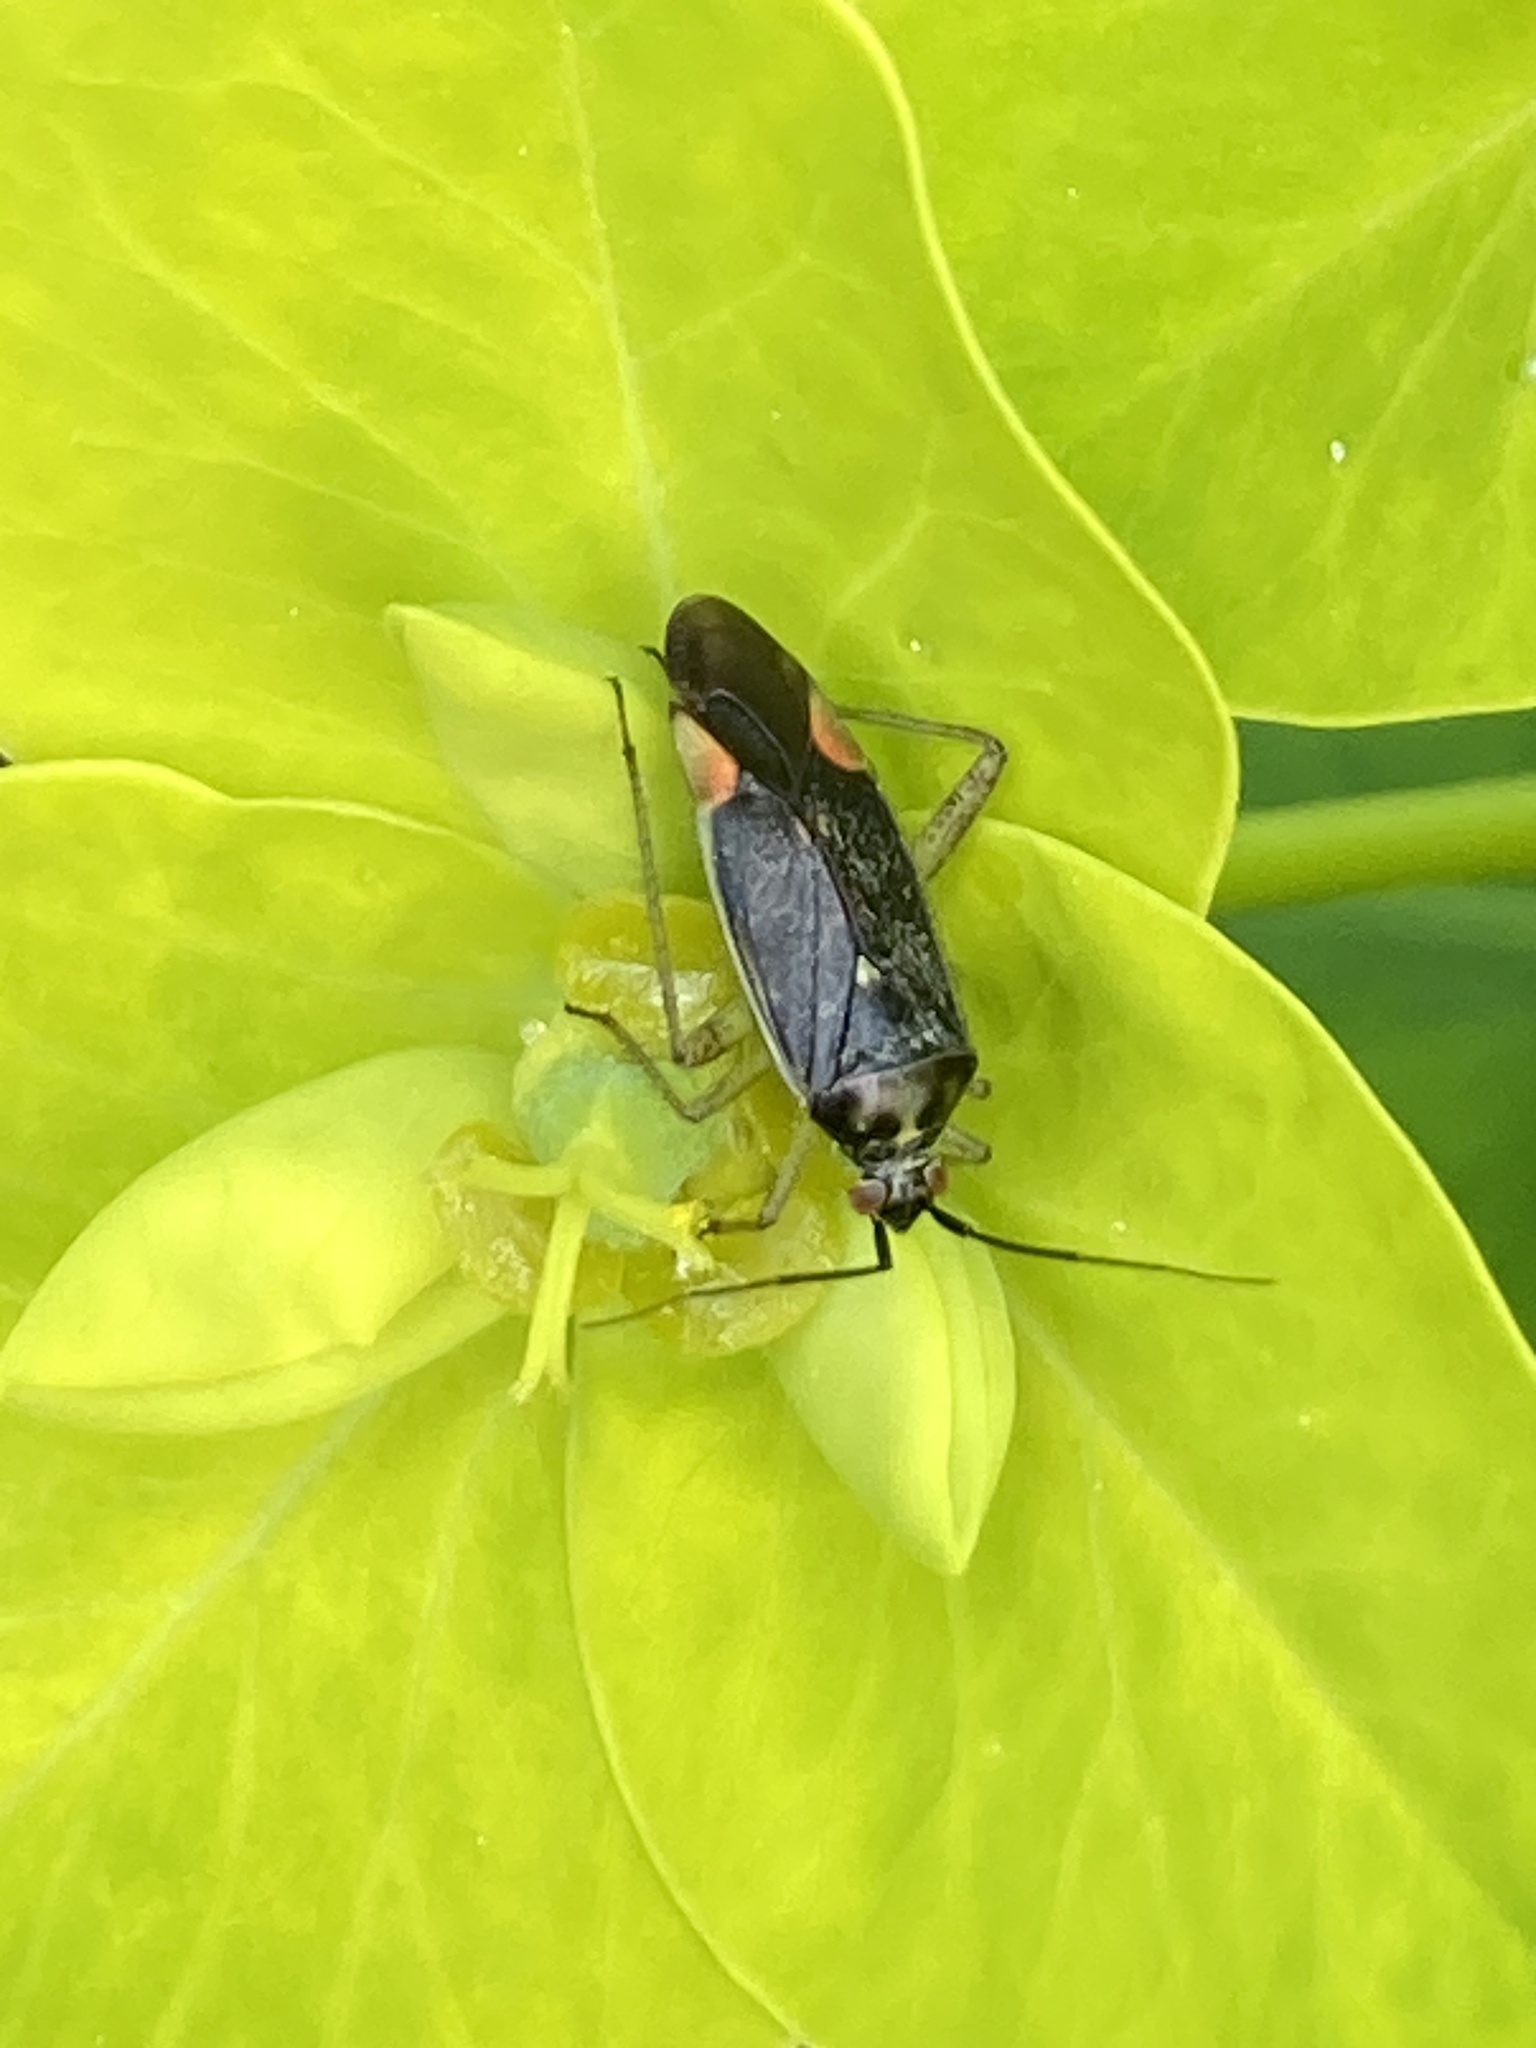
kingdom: Animalia
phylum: Arthropoda
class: Insecta
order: Hemiptera
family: Miridae
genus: Closterotomus
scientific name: Closterotomus trivialis
